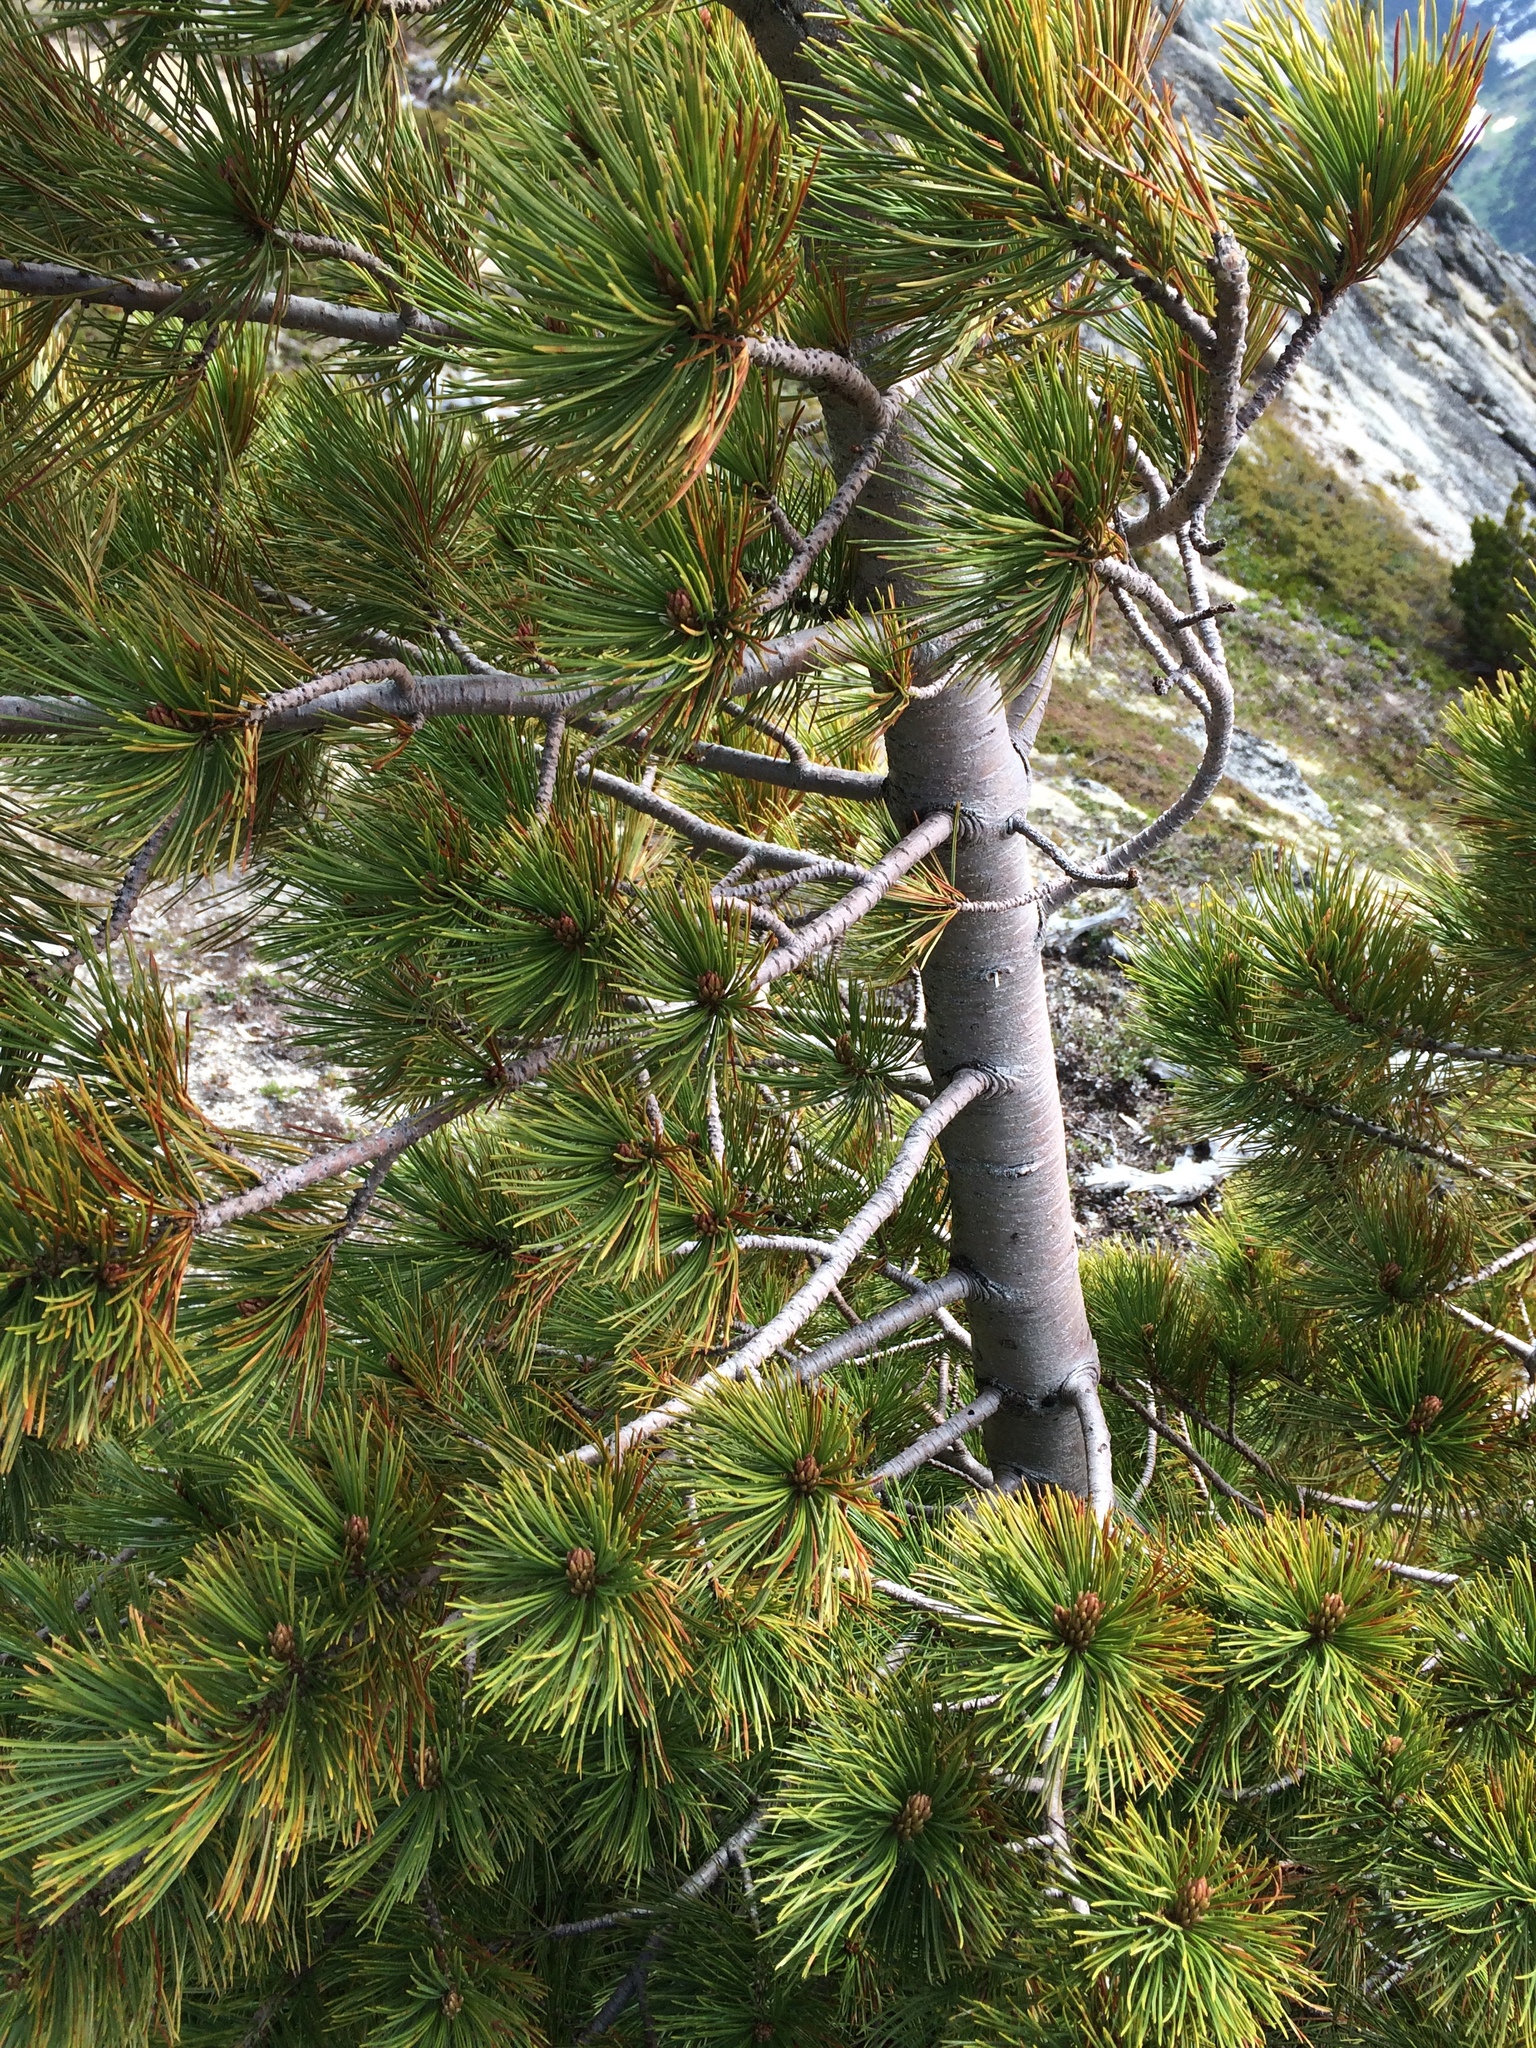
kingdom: Plantae
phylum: Tracheophyta
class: Pinopsida
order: Pinales
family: Pinaceae
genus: Pinus
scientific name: Pinus albicaulis
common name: Whitebark pine
